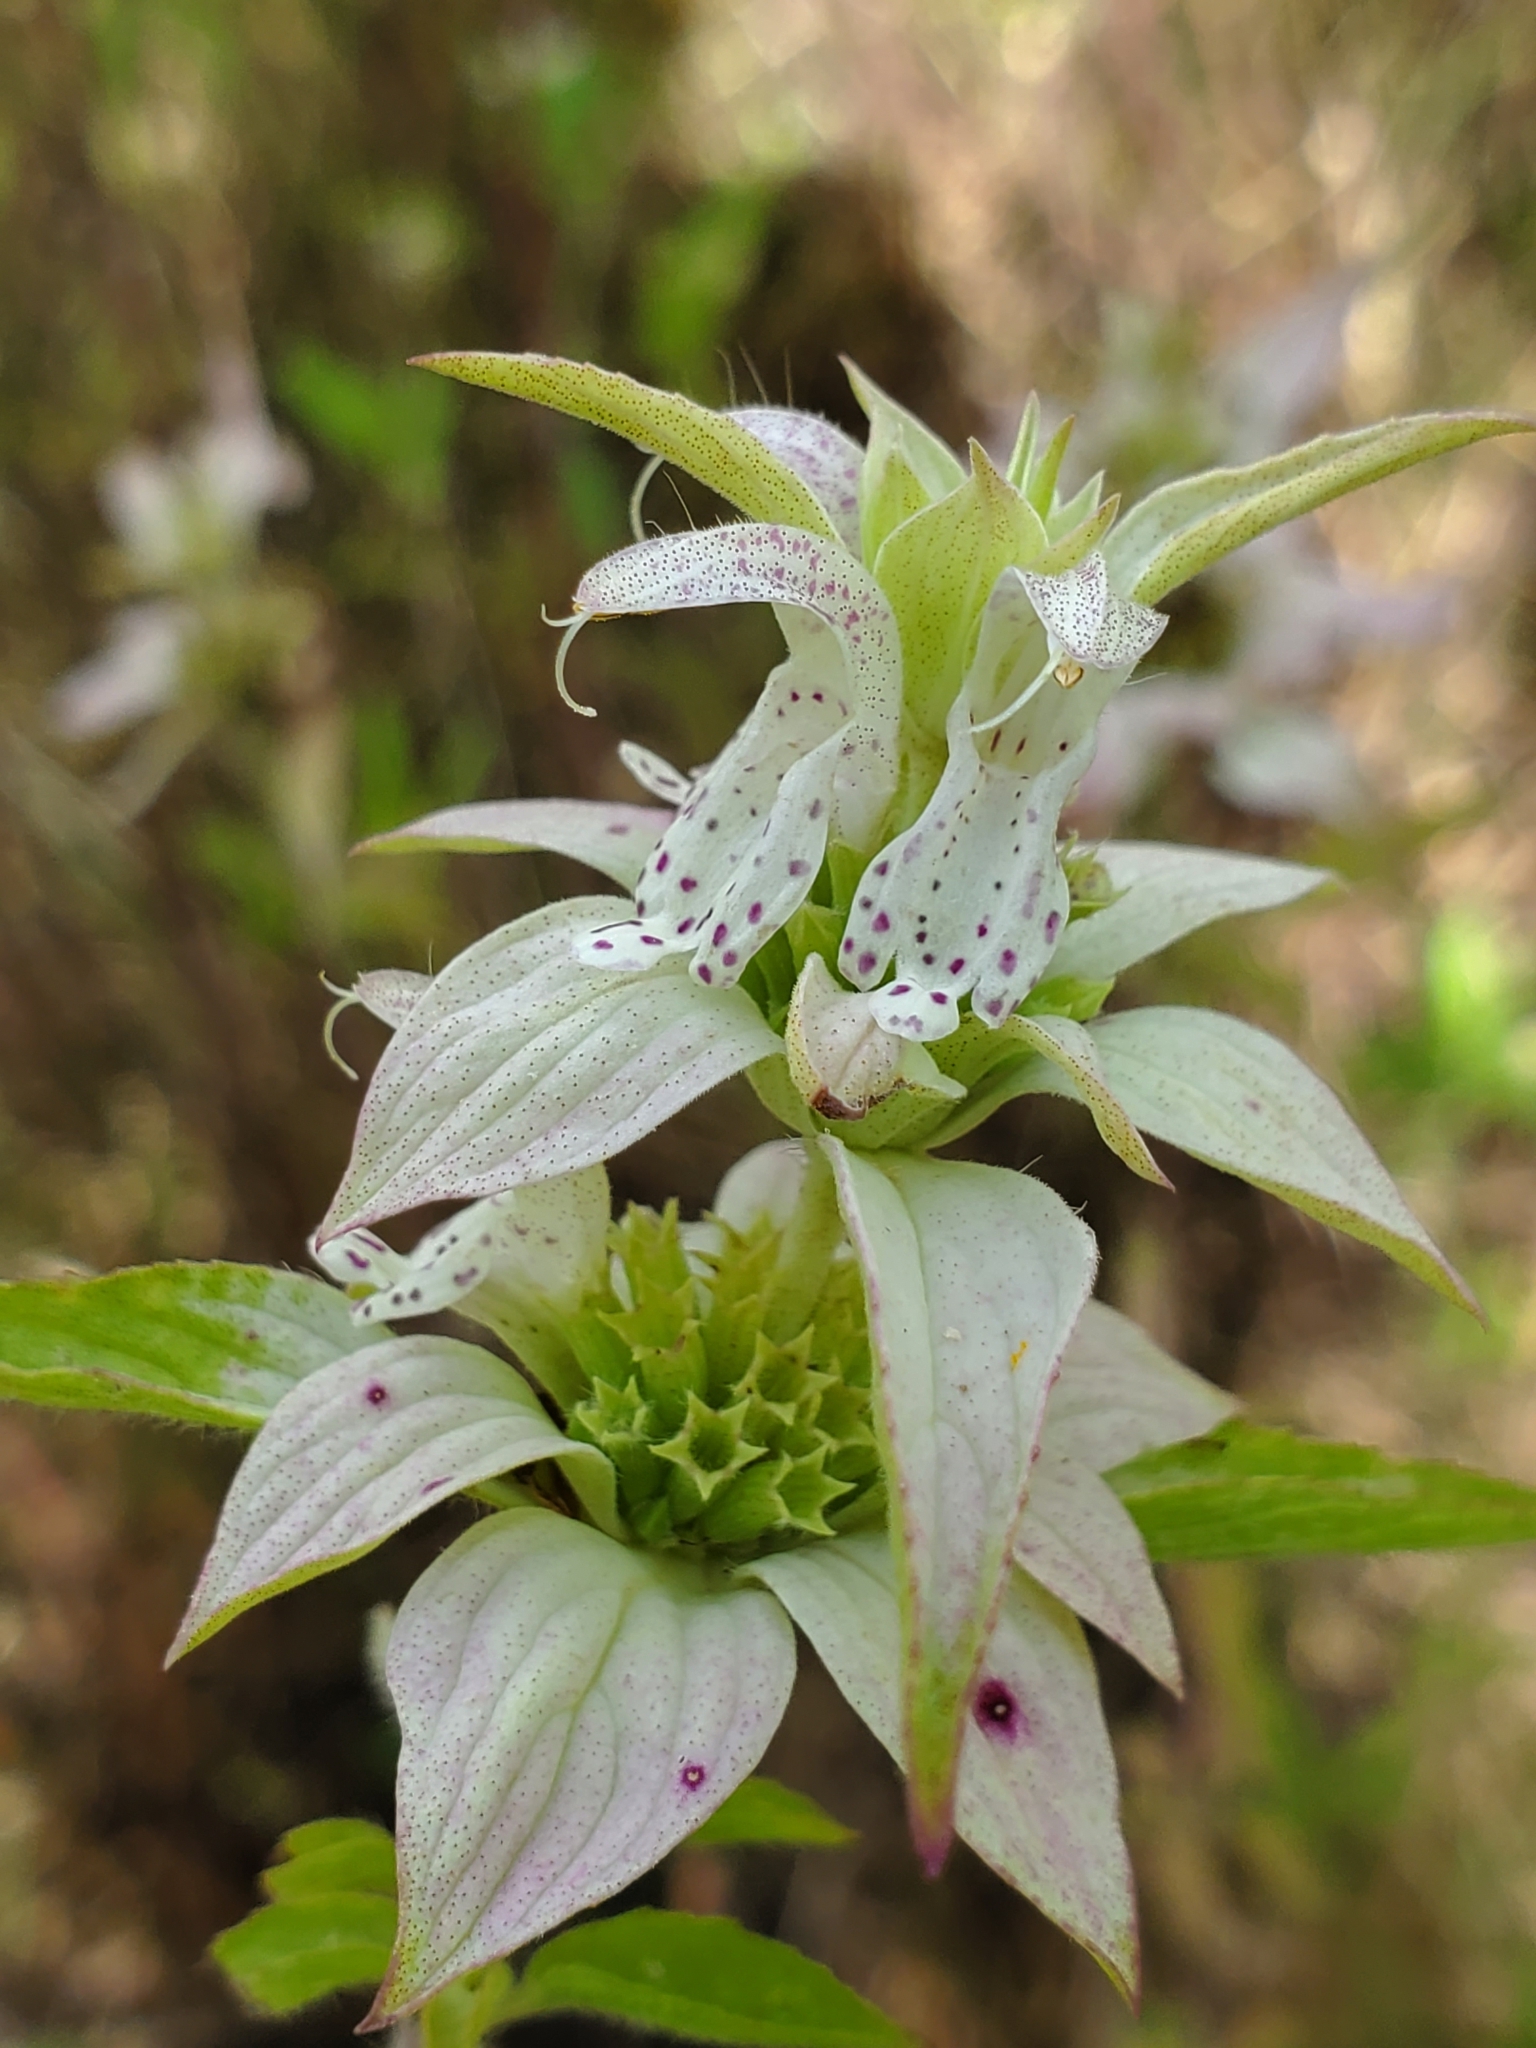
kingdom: Plantae
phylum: Tracheophyta
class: Magnoliopsida
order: Lamiales
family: Lamiaceae
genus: Monarda
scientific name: Monarda punctata
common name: Dotted monarda
